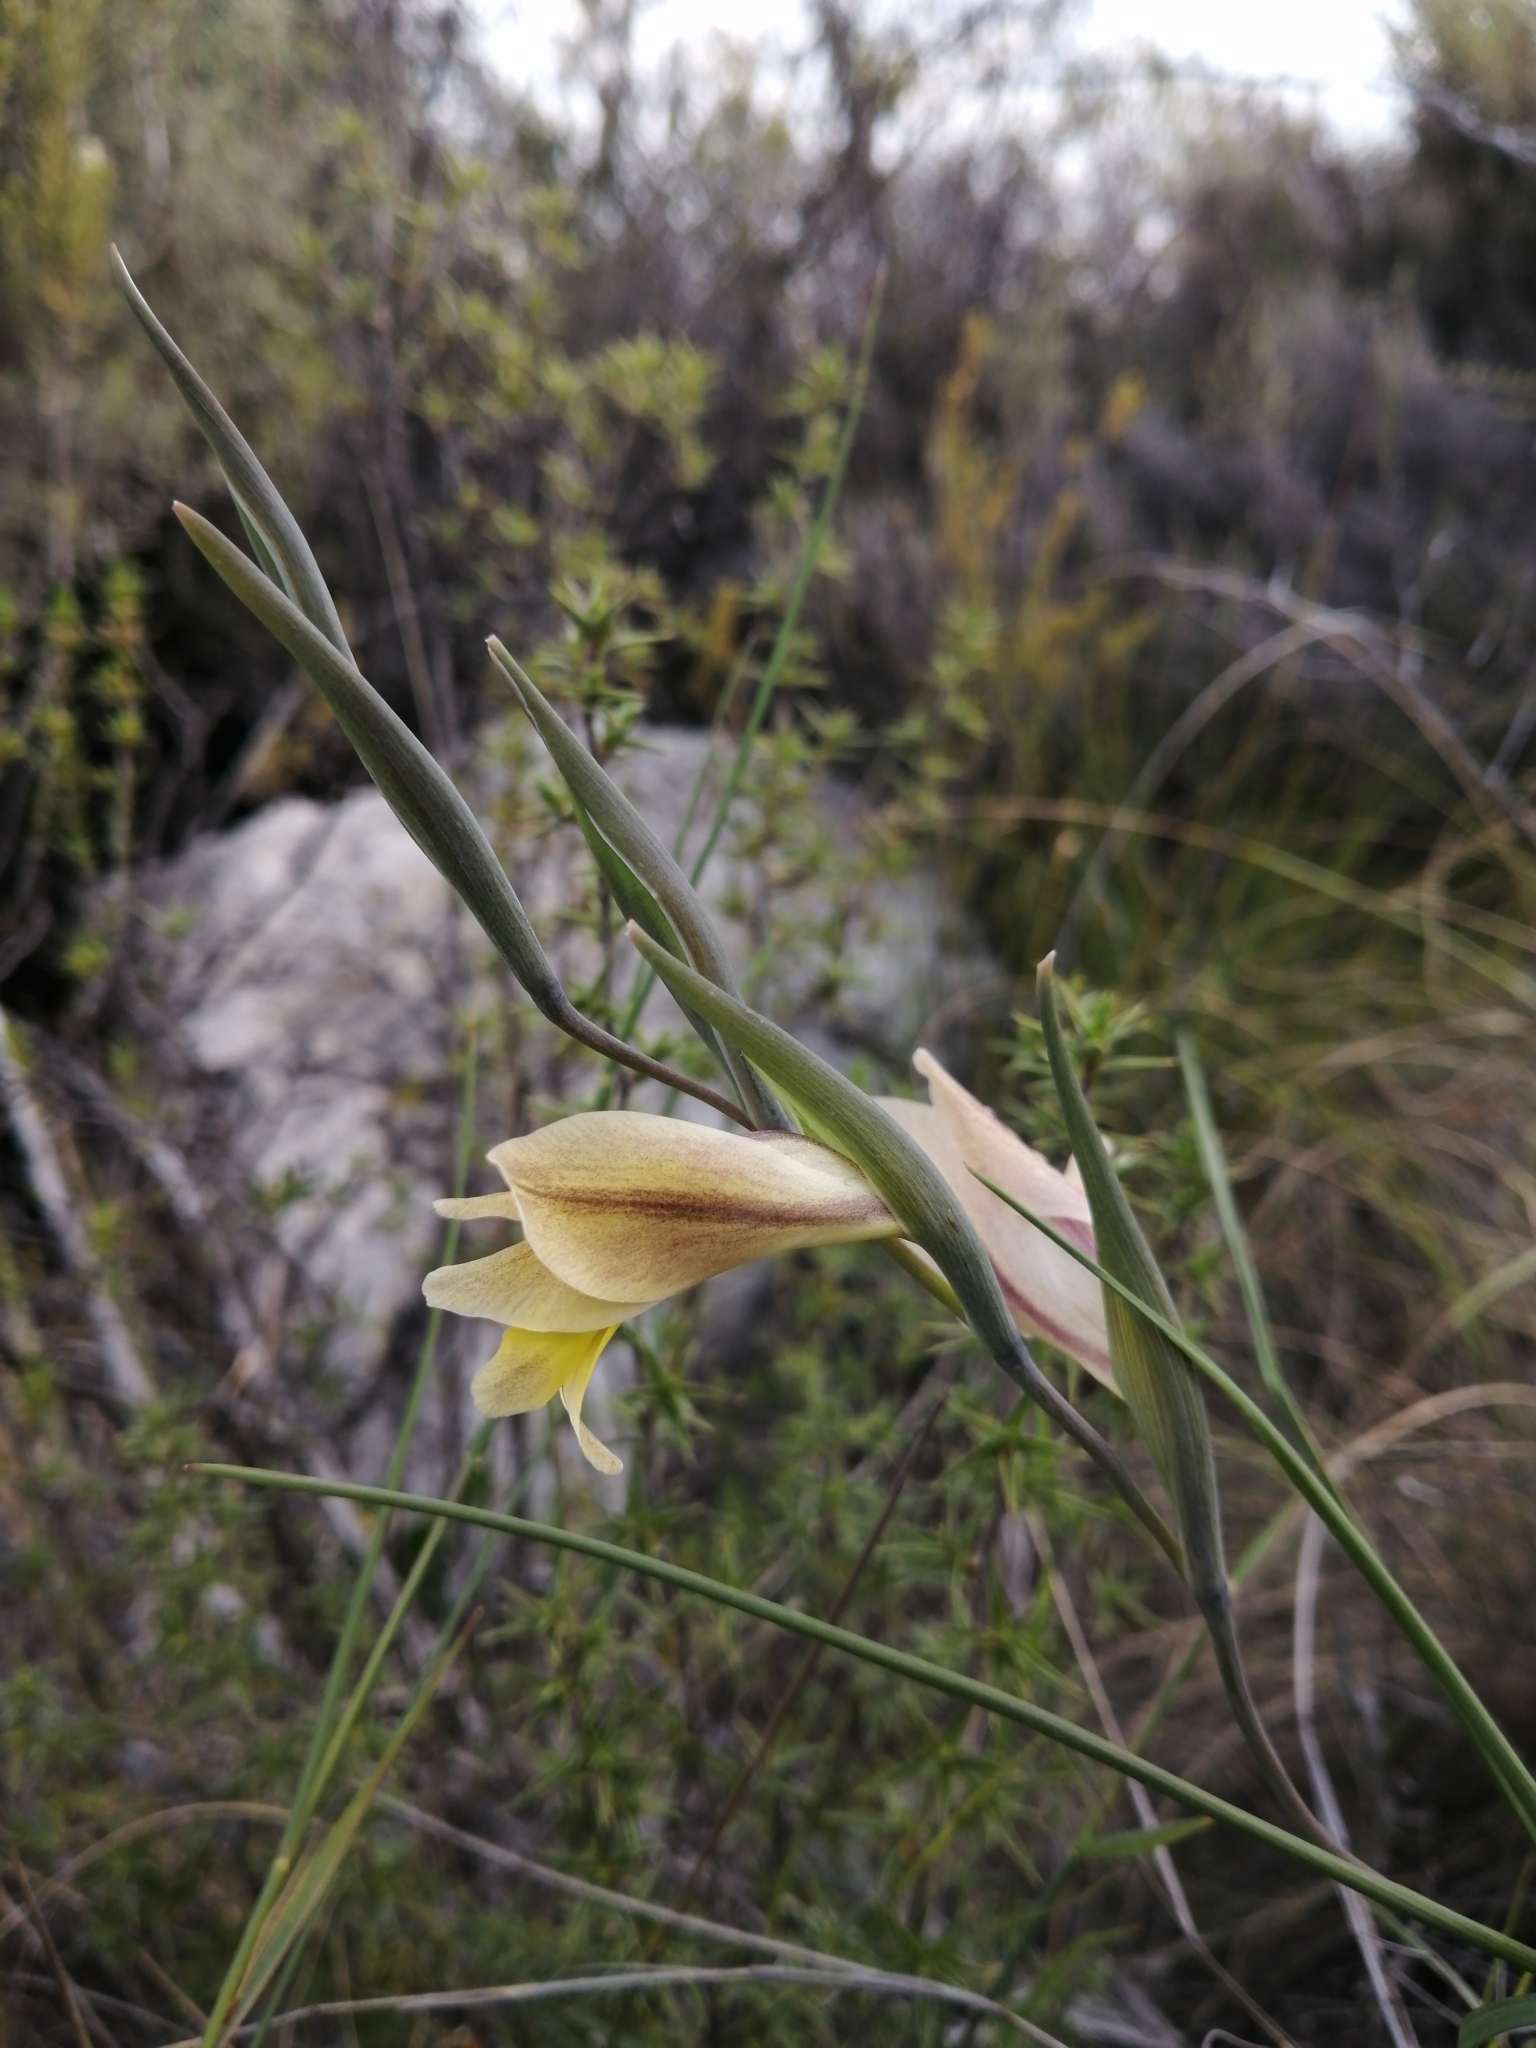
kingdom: Plantae
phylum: Tracheophyta
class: Liliopsida
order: Asparagales
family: Iridaceae
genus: Gladiolus
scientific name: Gladiolus carinatus
